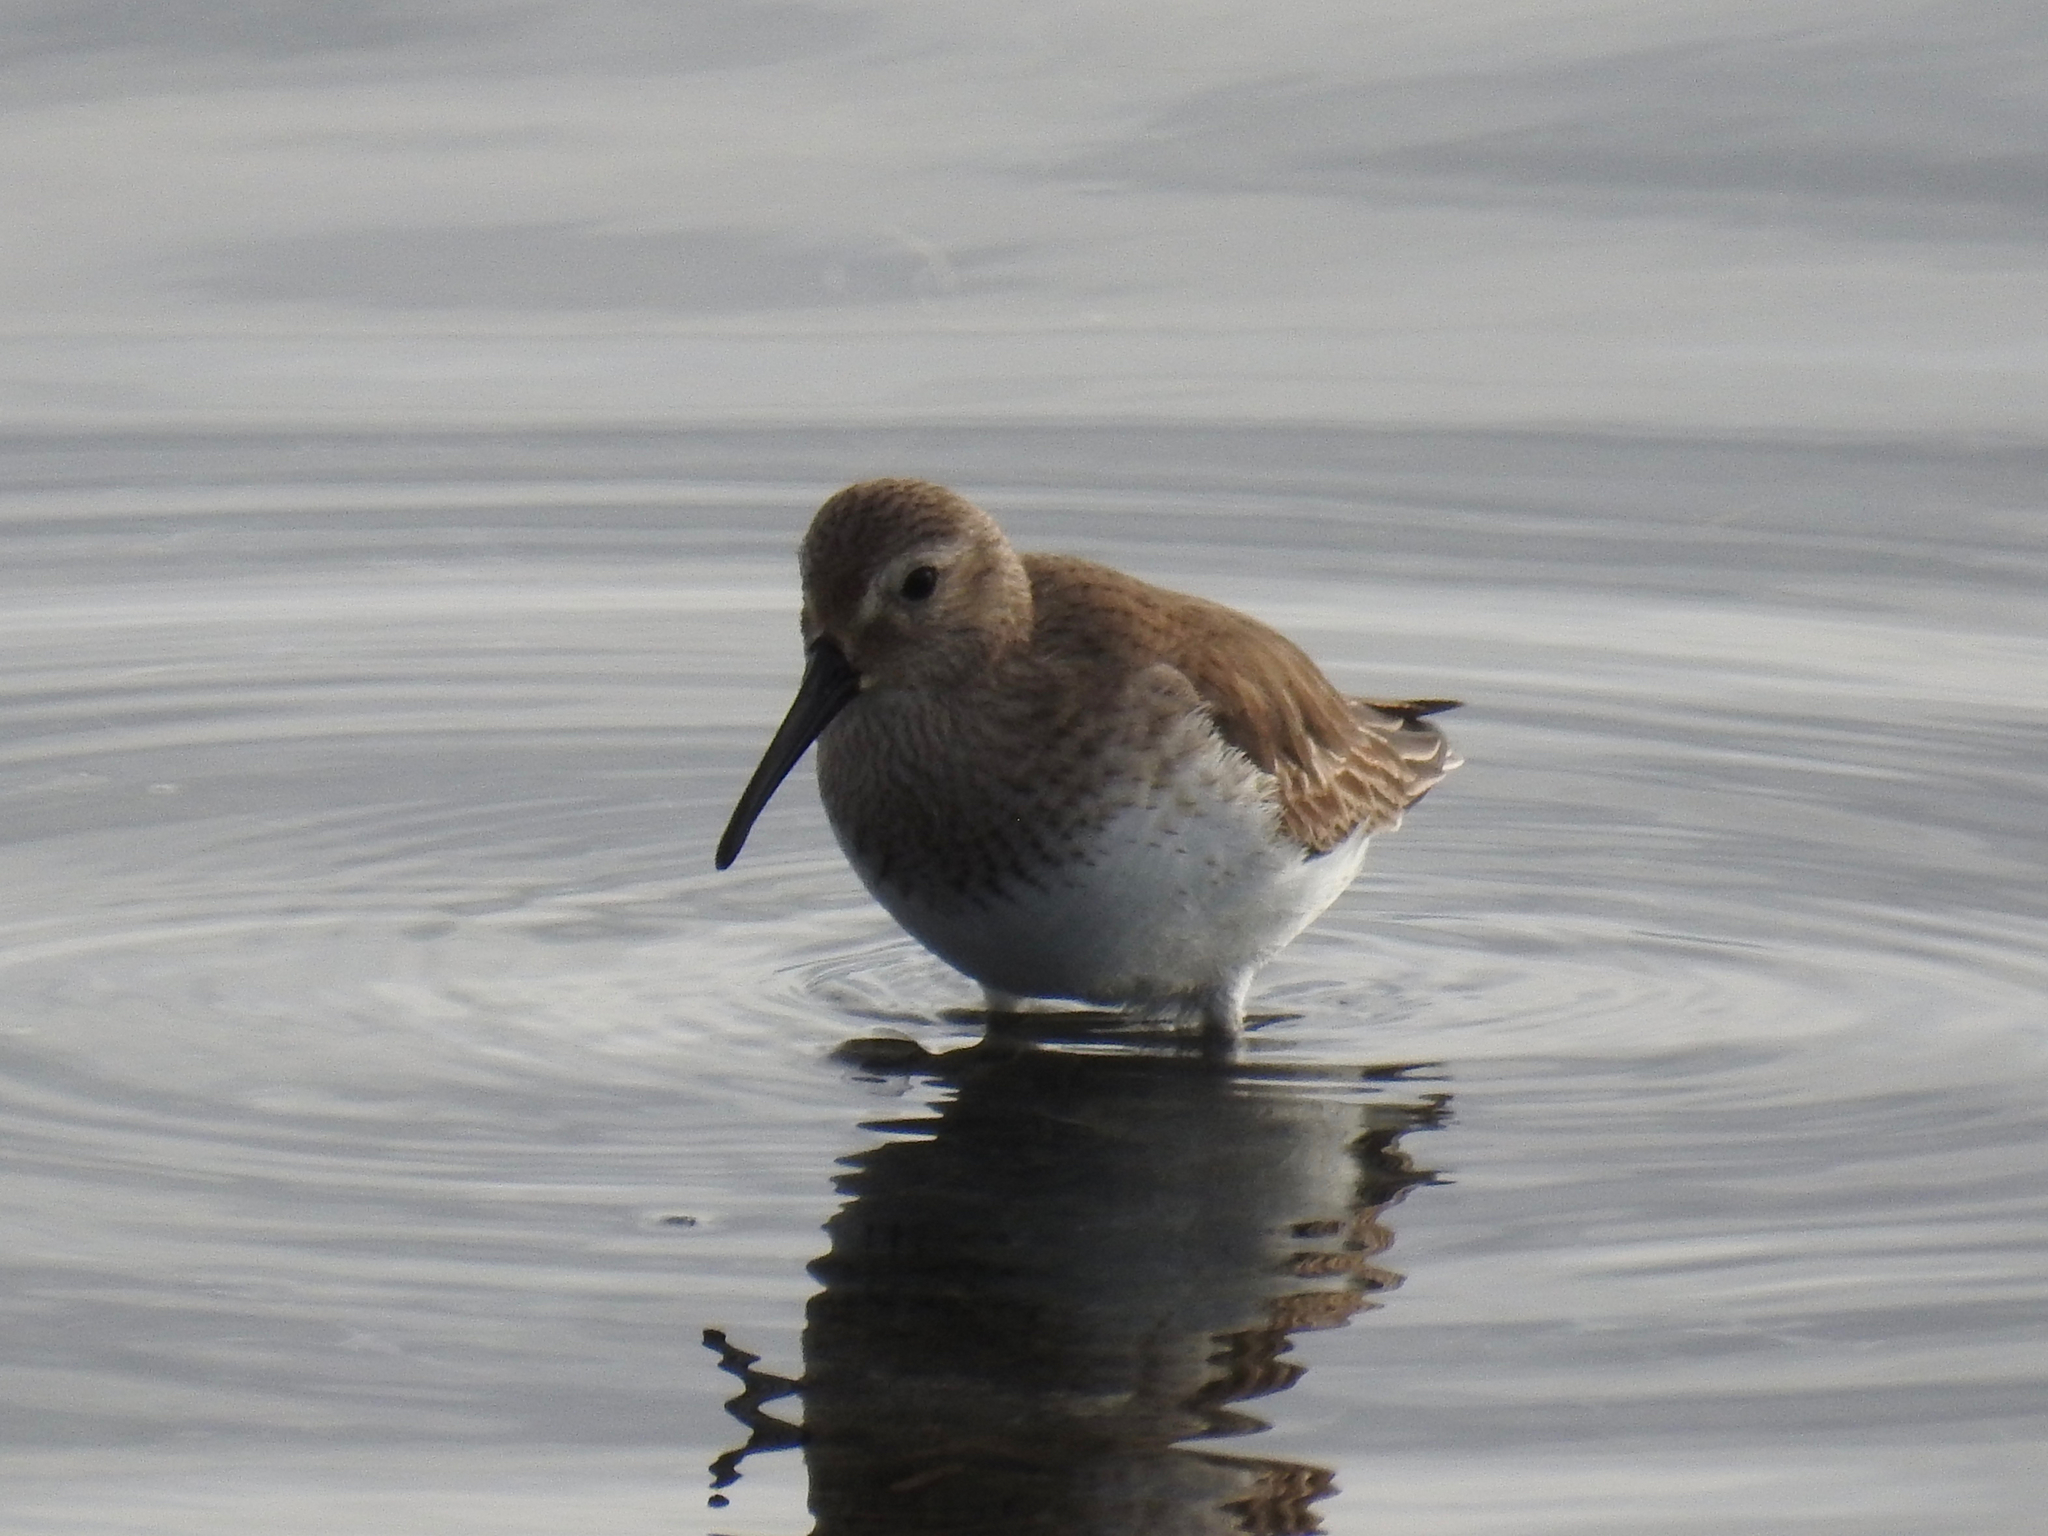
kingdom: Animalia
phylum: Chordata
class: Aves
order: Charadriiformes
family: Scolopacidae
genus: Calidris
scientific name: Calidris alpina
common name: Dunlin
